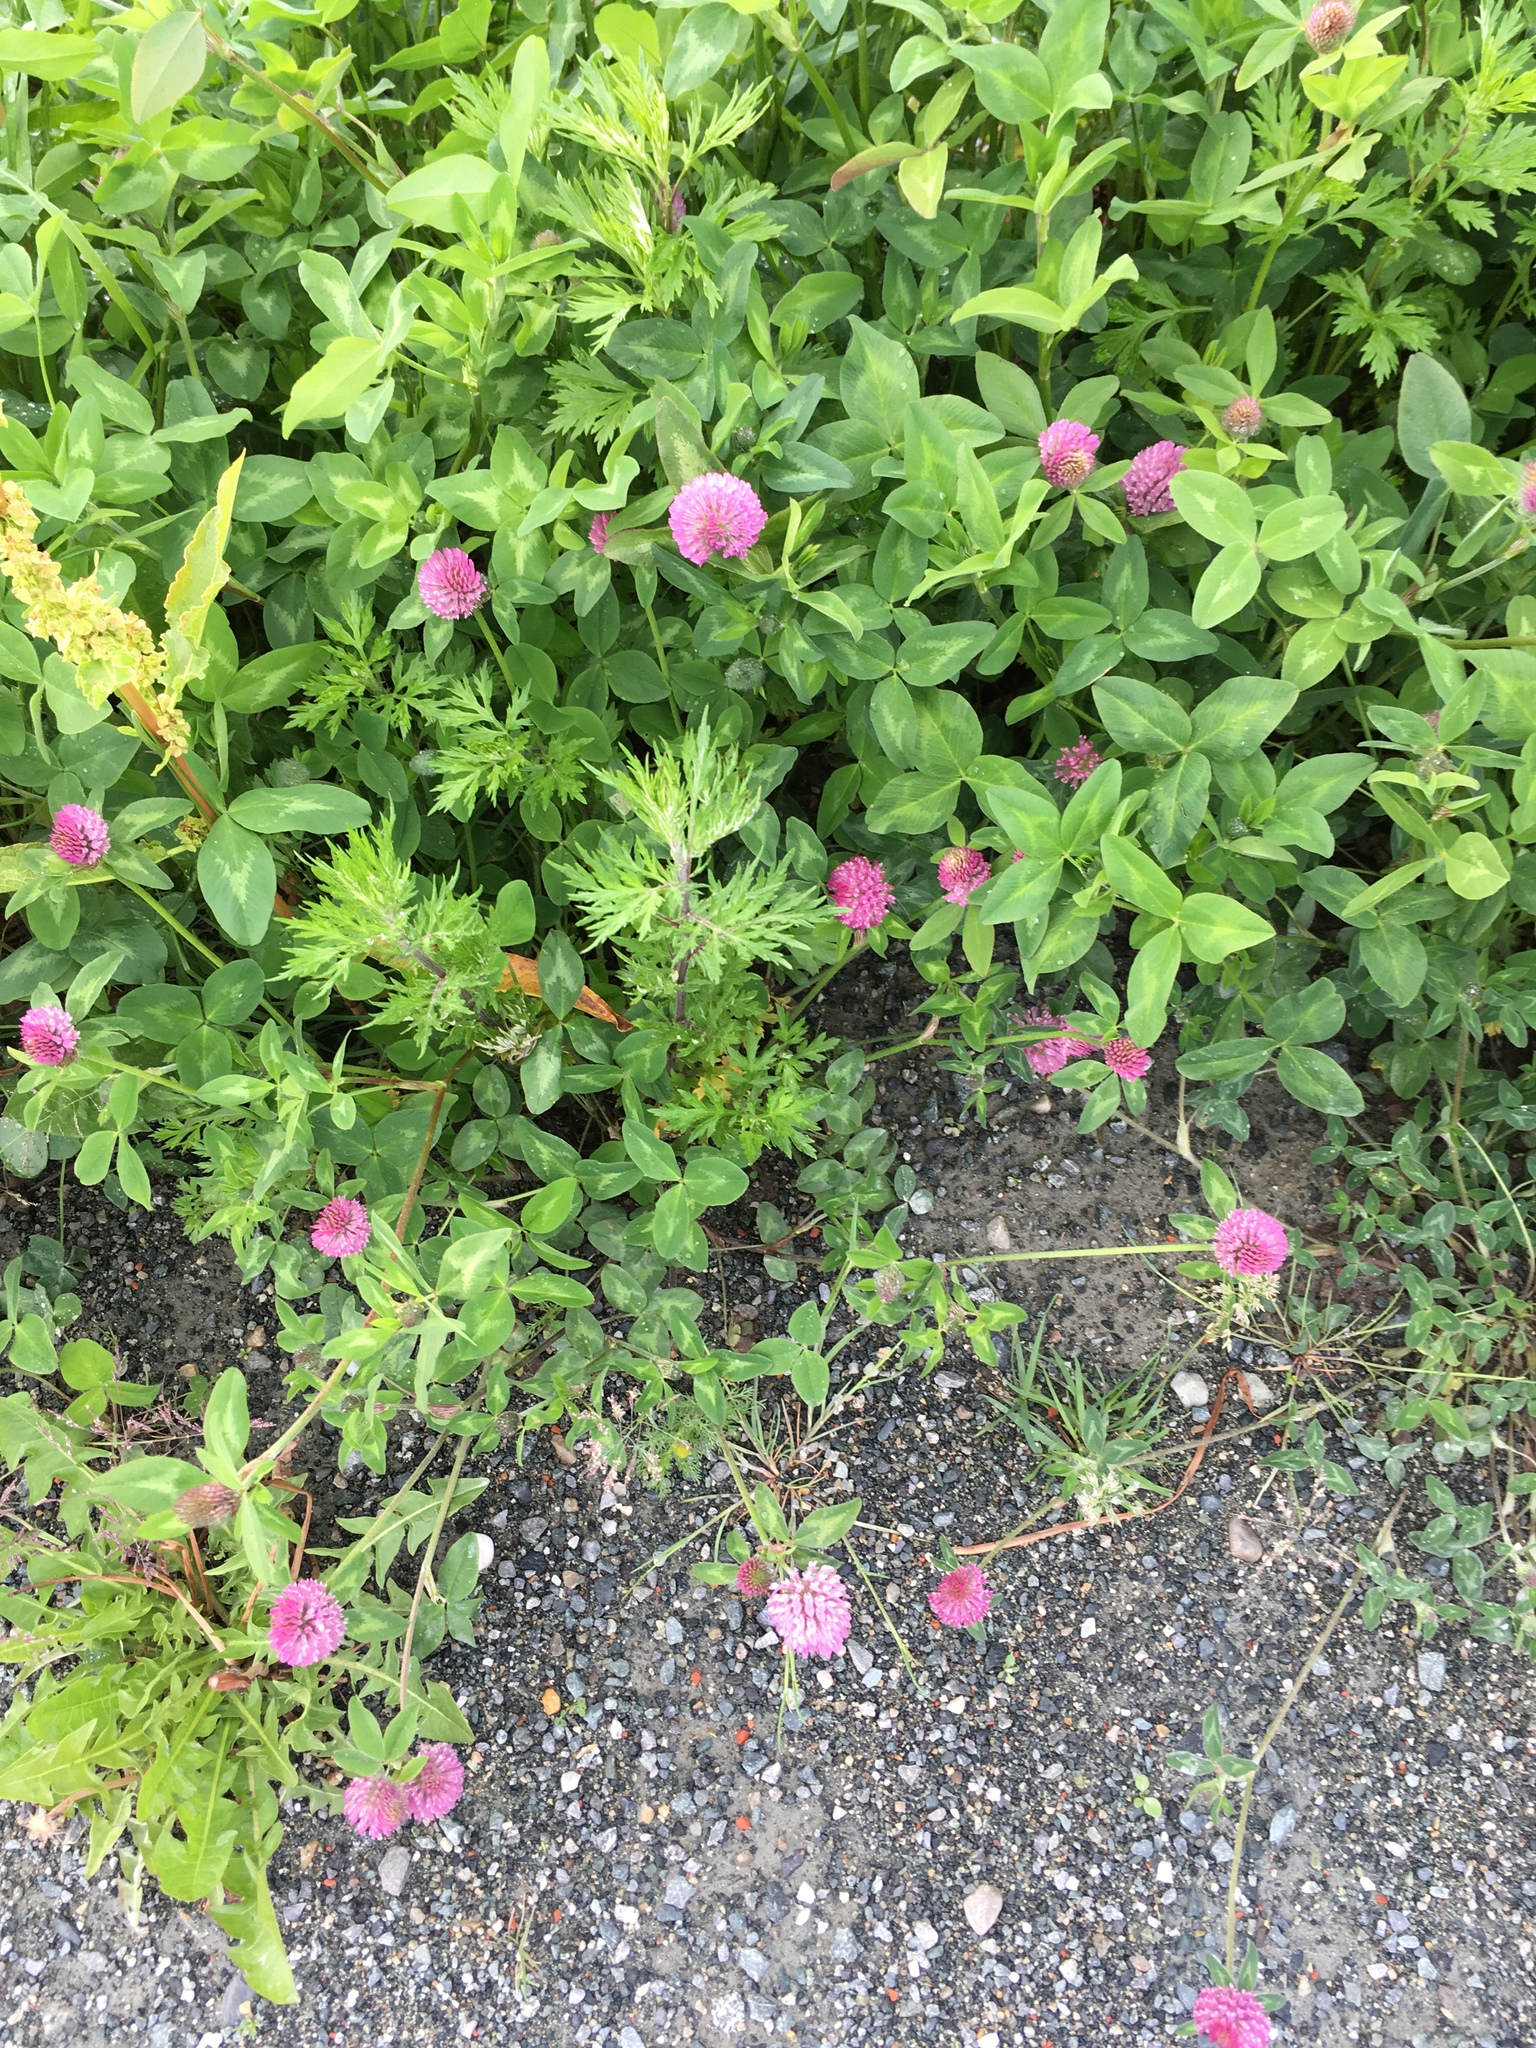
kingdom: Plantae
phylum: Tracheophyta
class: Magnoliopsida
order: Fabales
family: Fabaceae
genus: Trifolium
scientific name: Trifolium pratense
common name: Red clover
